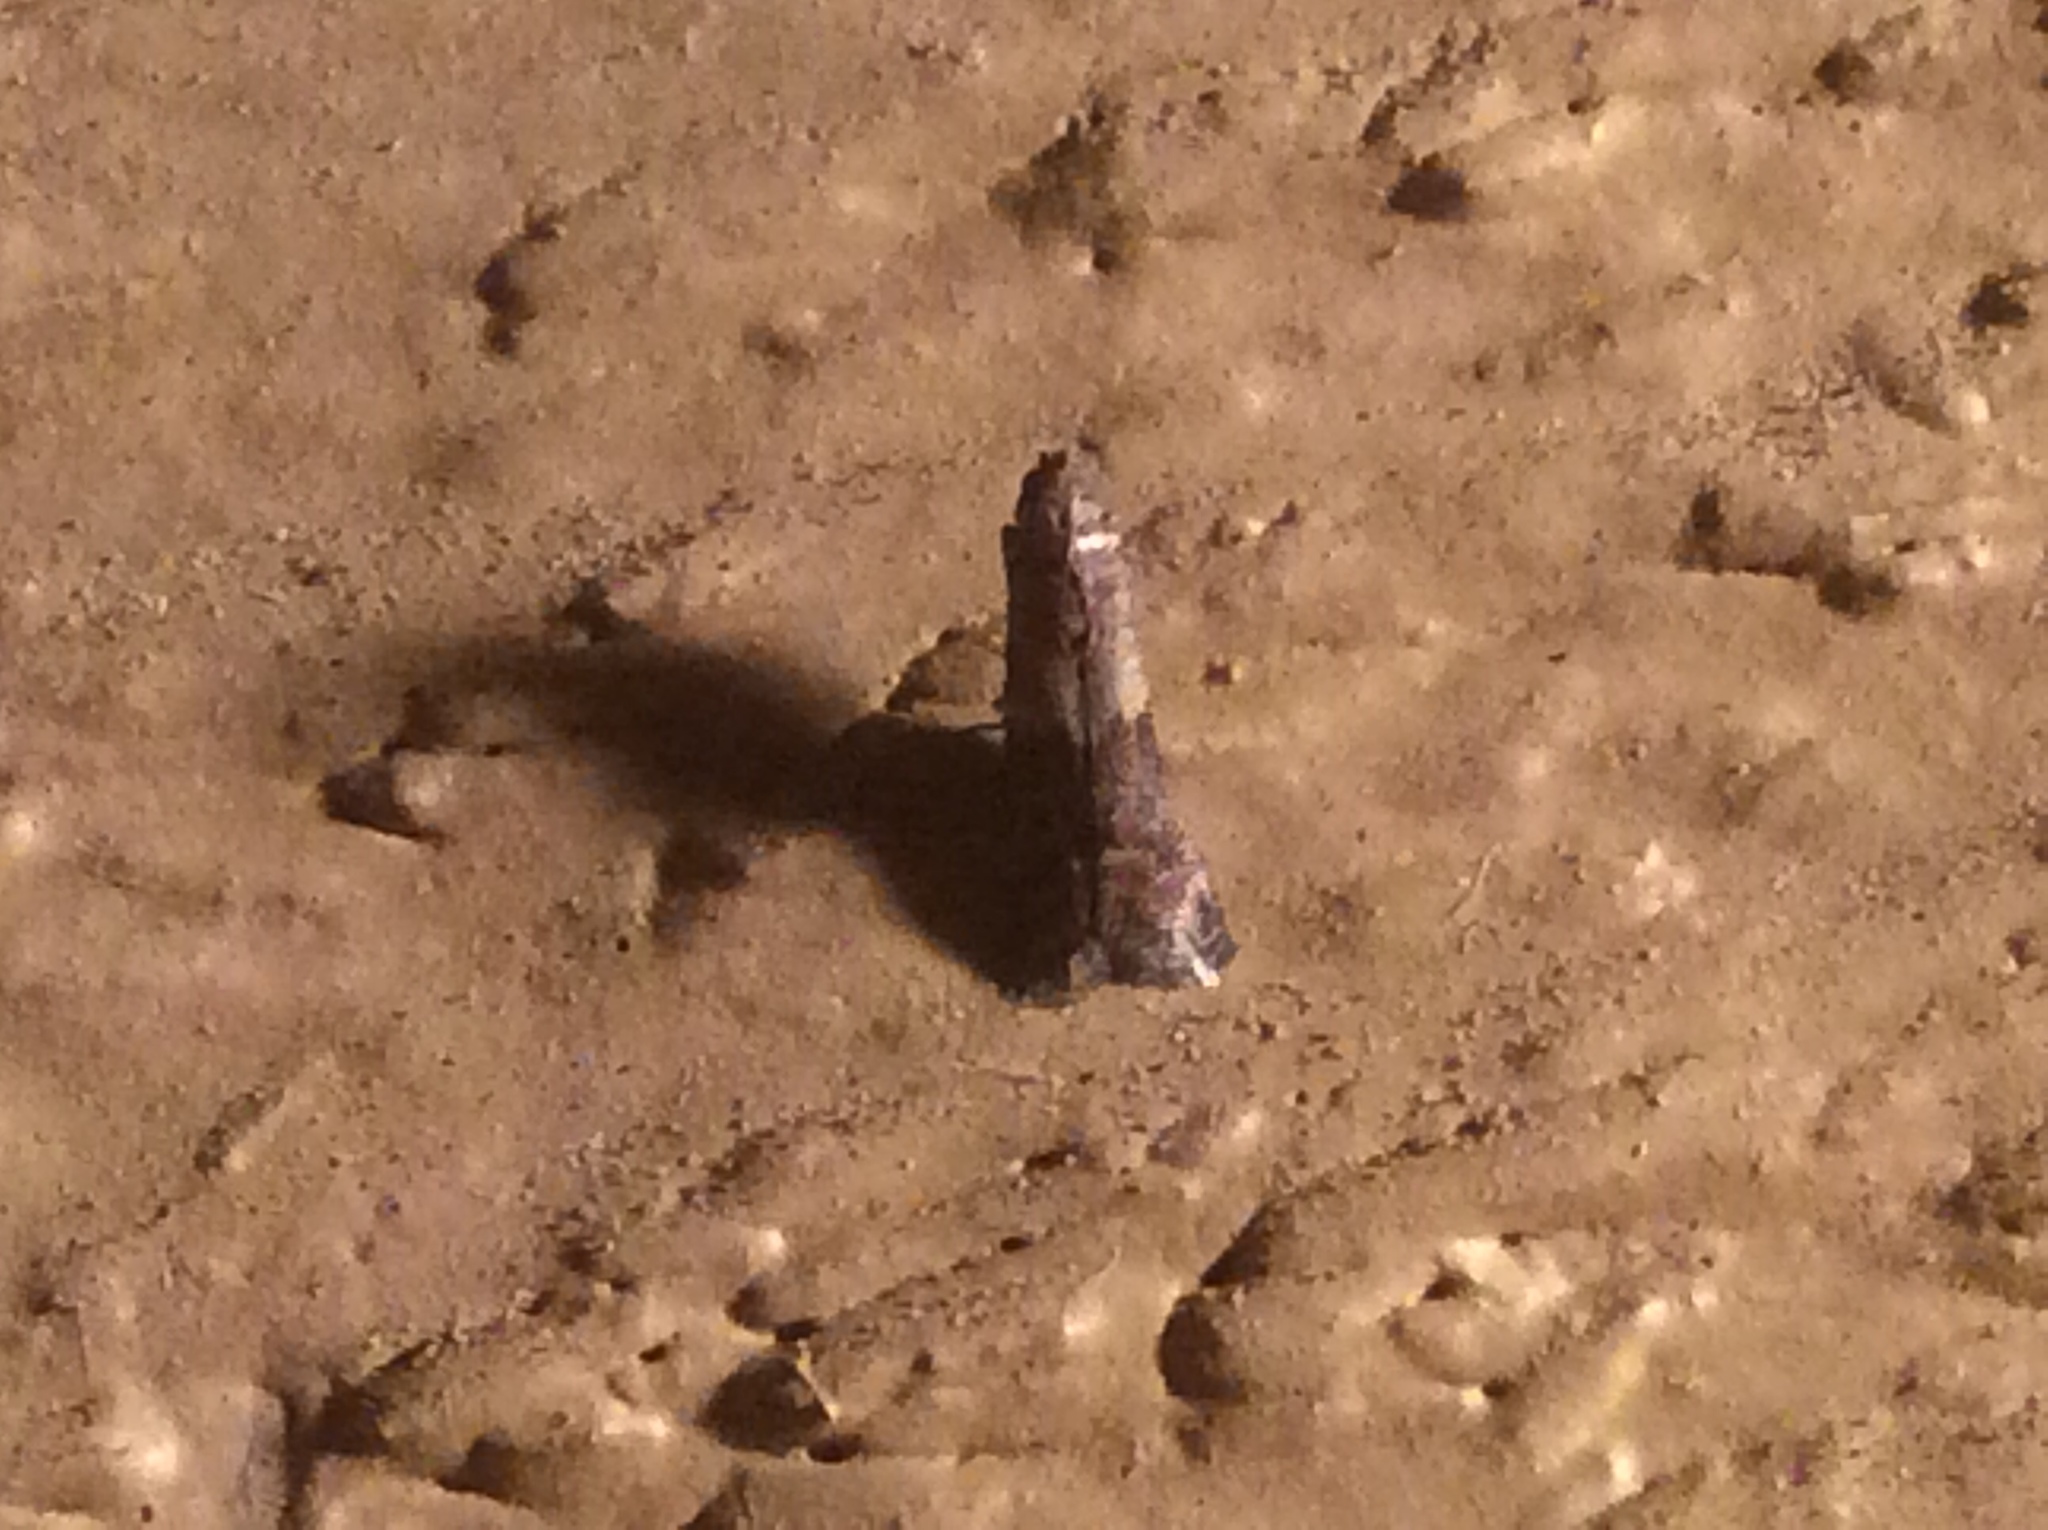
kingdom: Animalia
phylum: Arthropoda
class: Insecta
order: Lepidoptera
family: Pyralidae
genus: Ephestiodes
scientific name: Ephestiodes infimella
